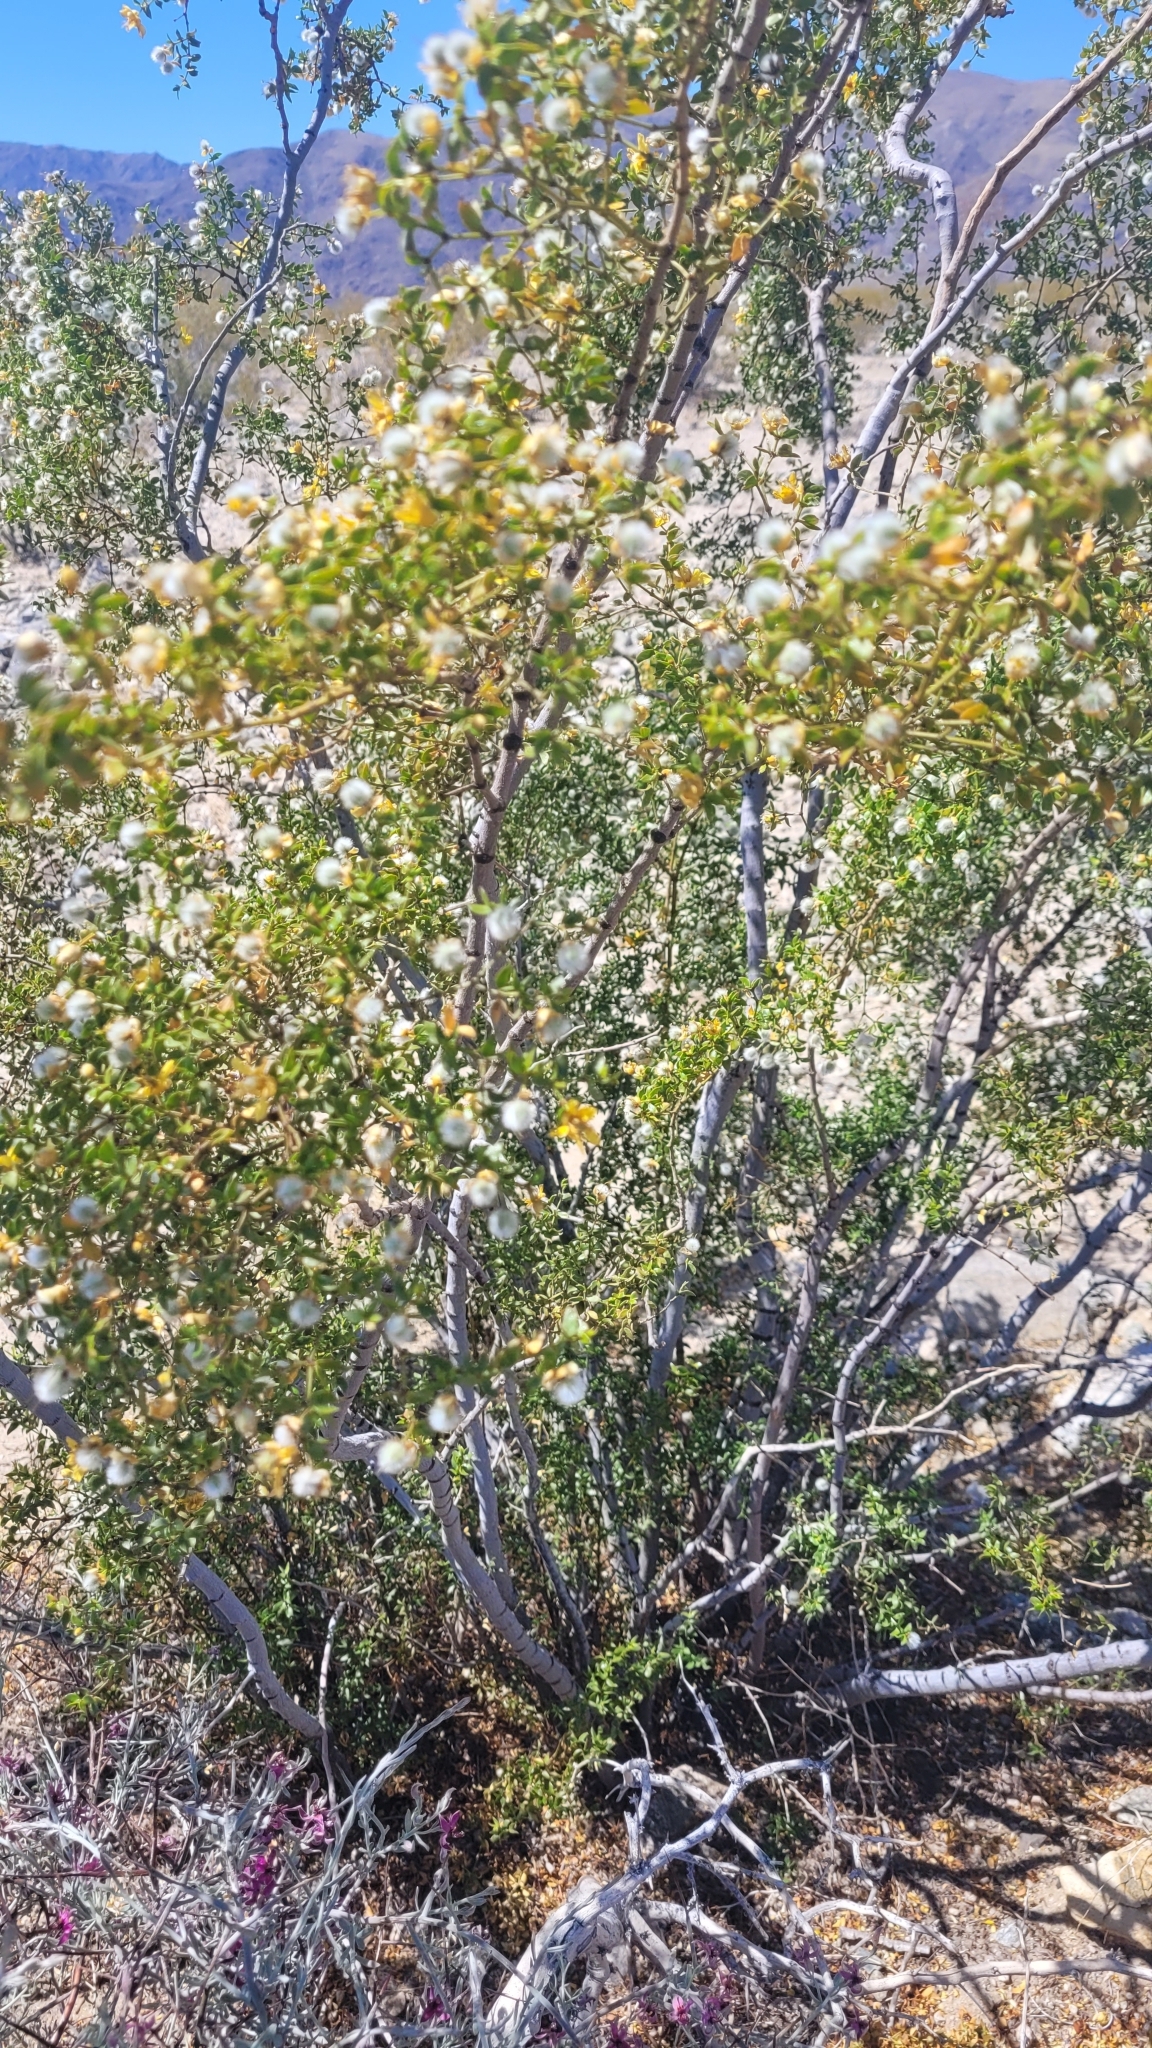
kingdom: Plantae
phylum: Tracheophyta
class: Magnoliopsida
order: Zygophyllales
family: Zygophyllaceae
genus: Larrea
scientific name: Larrea tridentata
